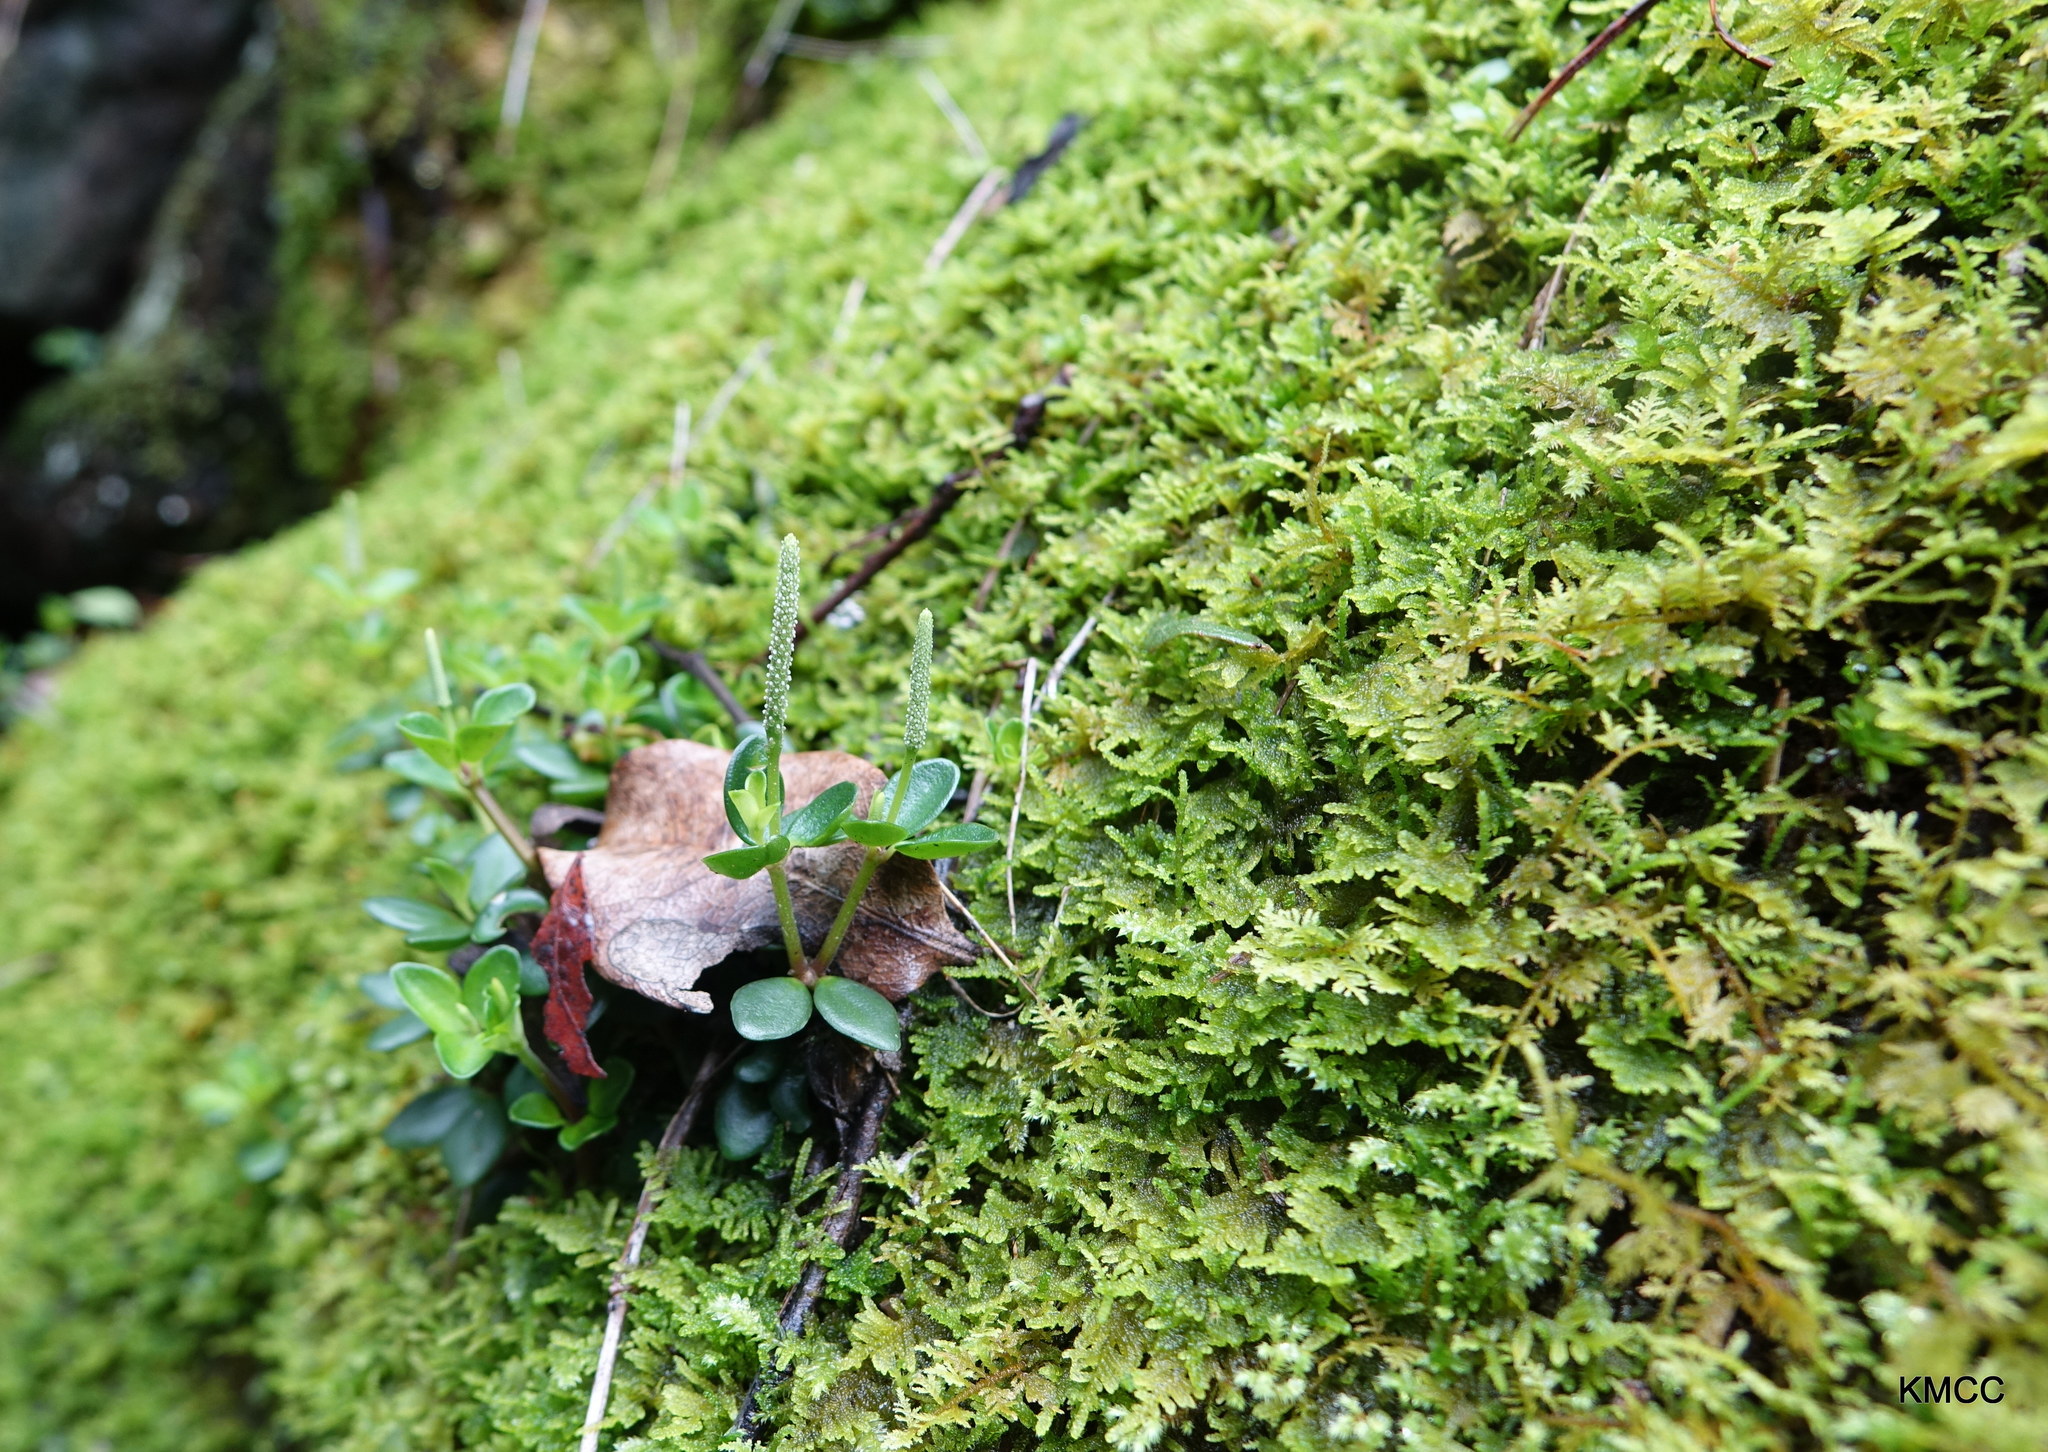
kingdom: Plantae
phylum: Tracheophyta
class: Magnoliopsida
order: Piperales
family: Piperaceae
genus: Peperomia
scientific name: Peperomia tetraphylla
